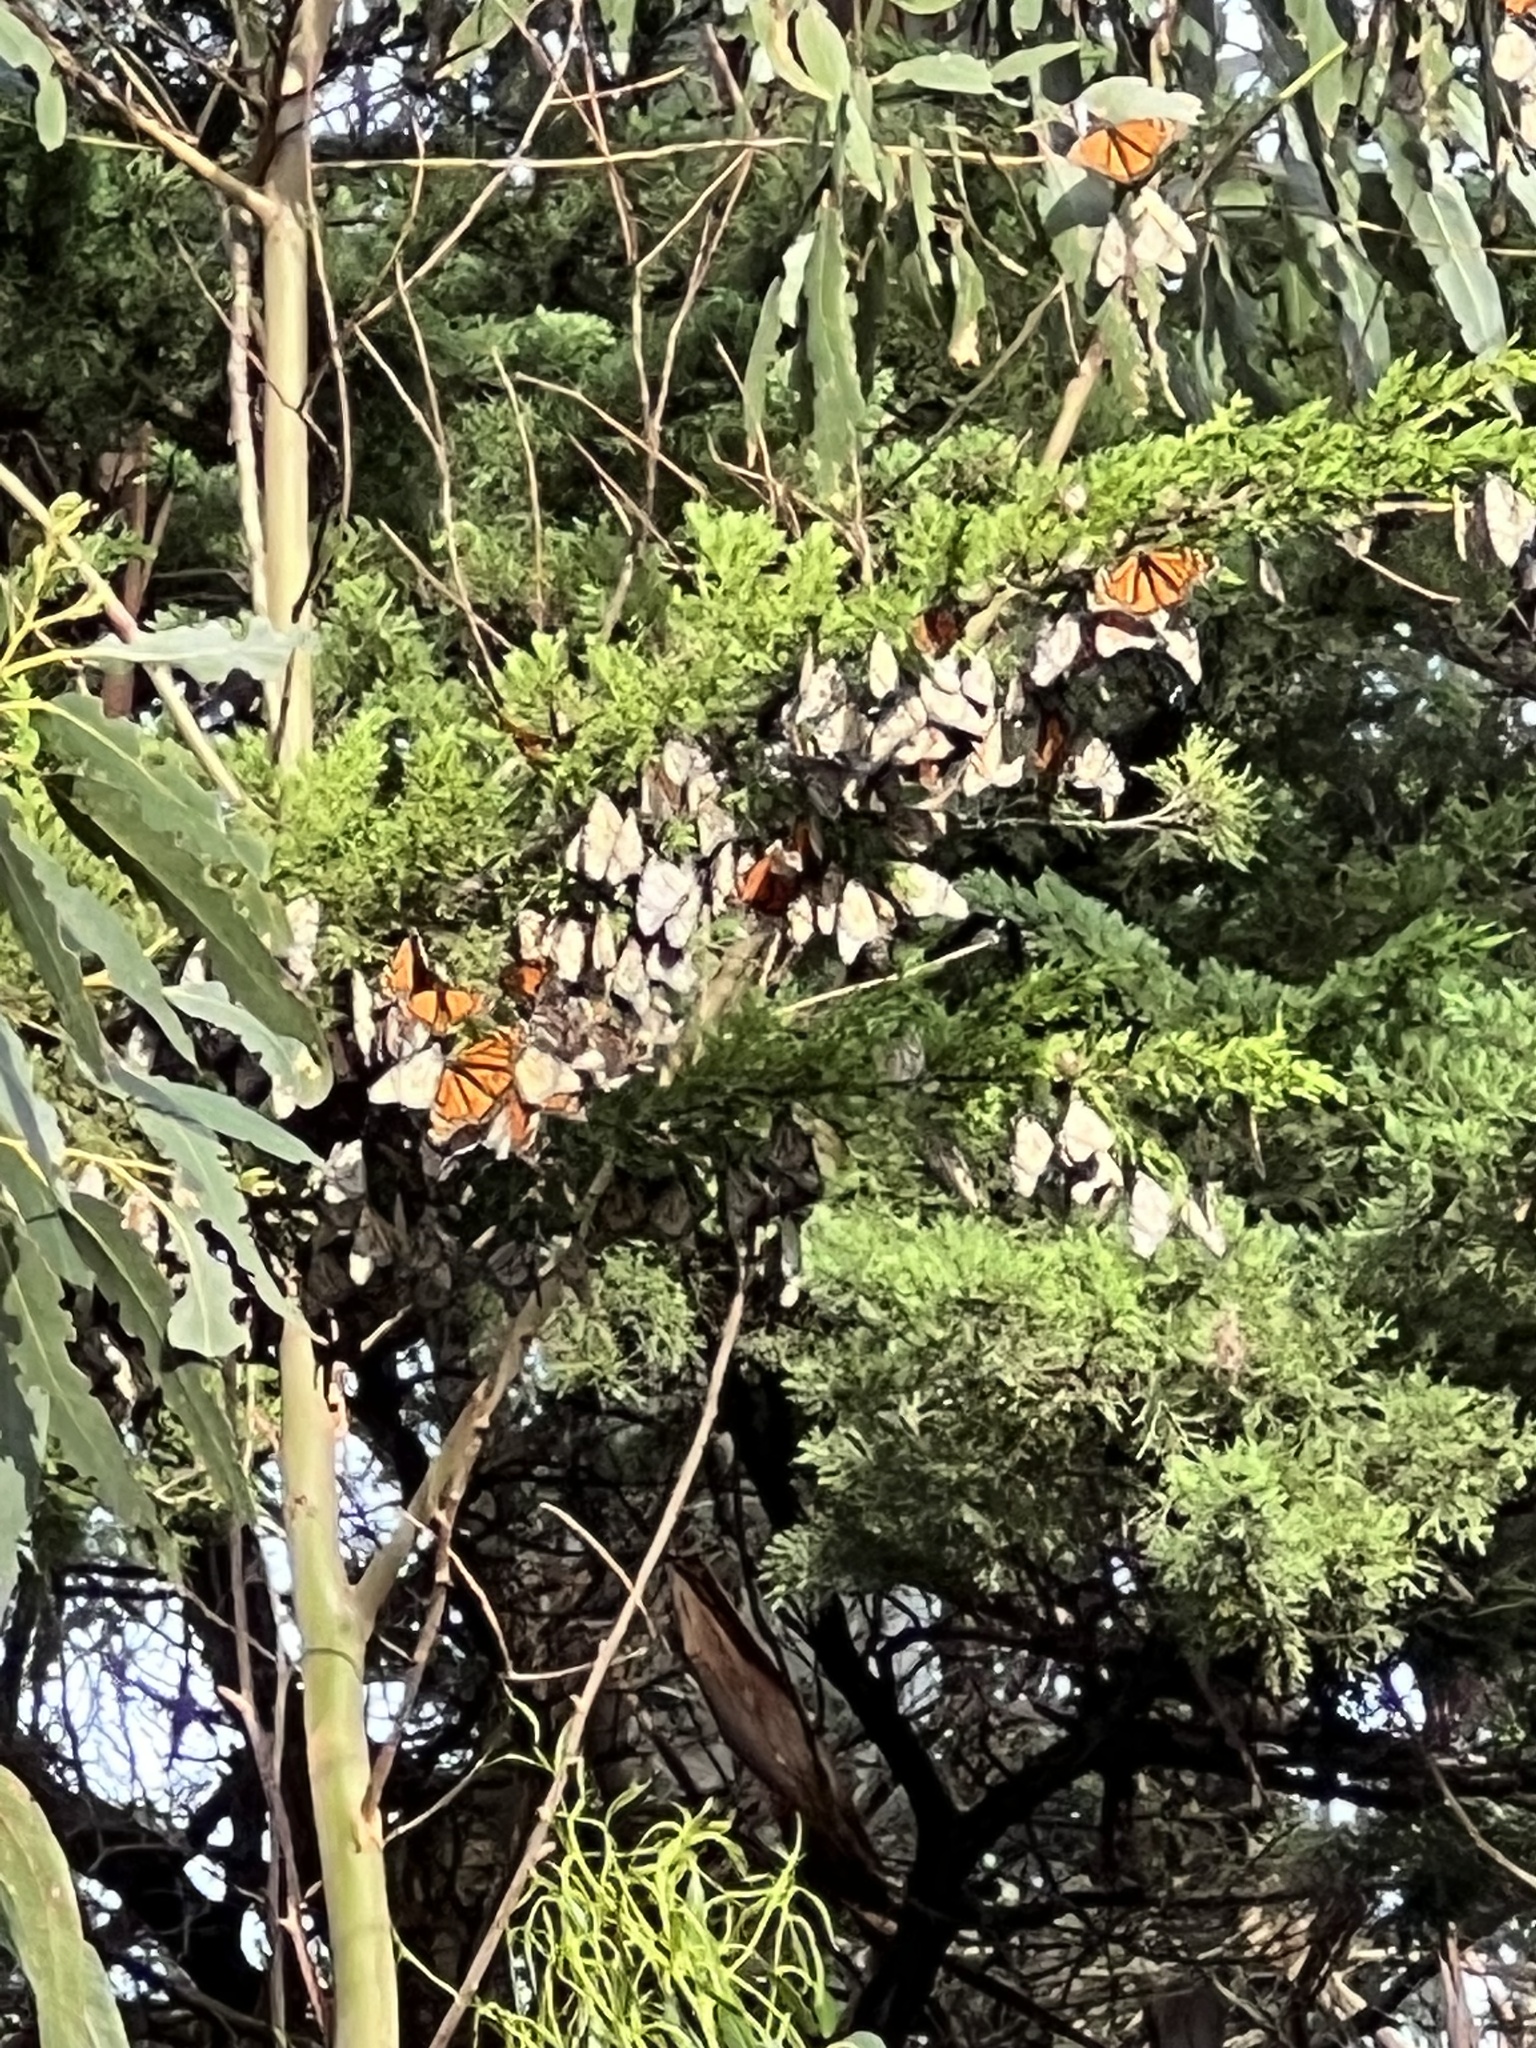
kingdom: Animalia
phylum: Arthropoda
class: Insecta
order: Lepidoptera
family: Nymphalidae
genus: Danaus
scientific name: Danaus plexippus
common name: Monarch
